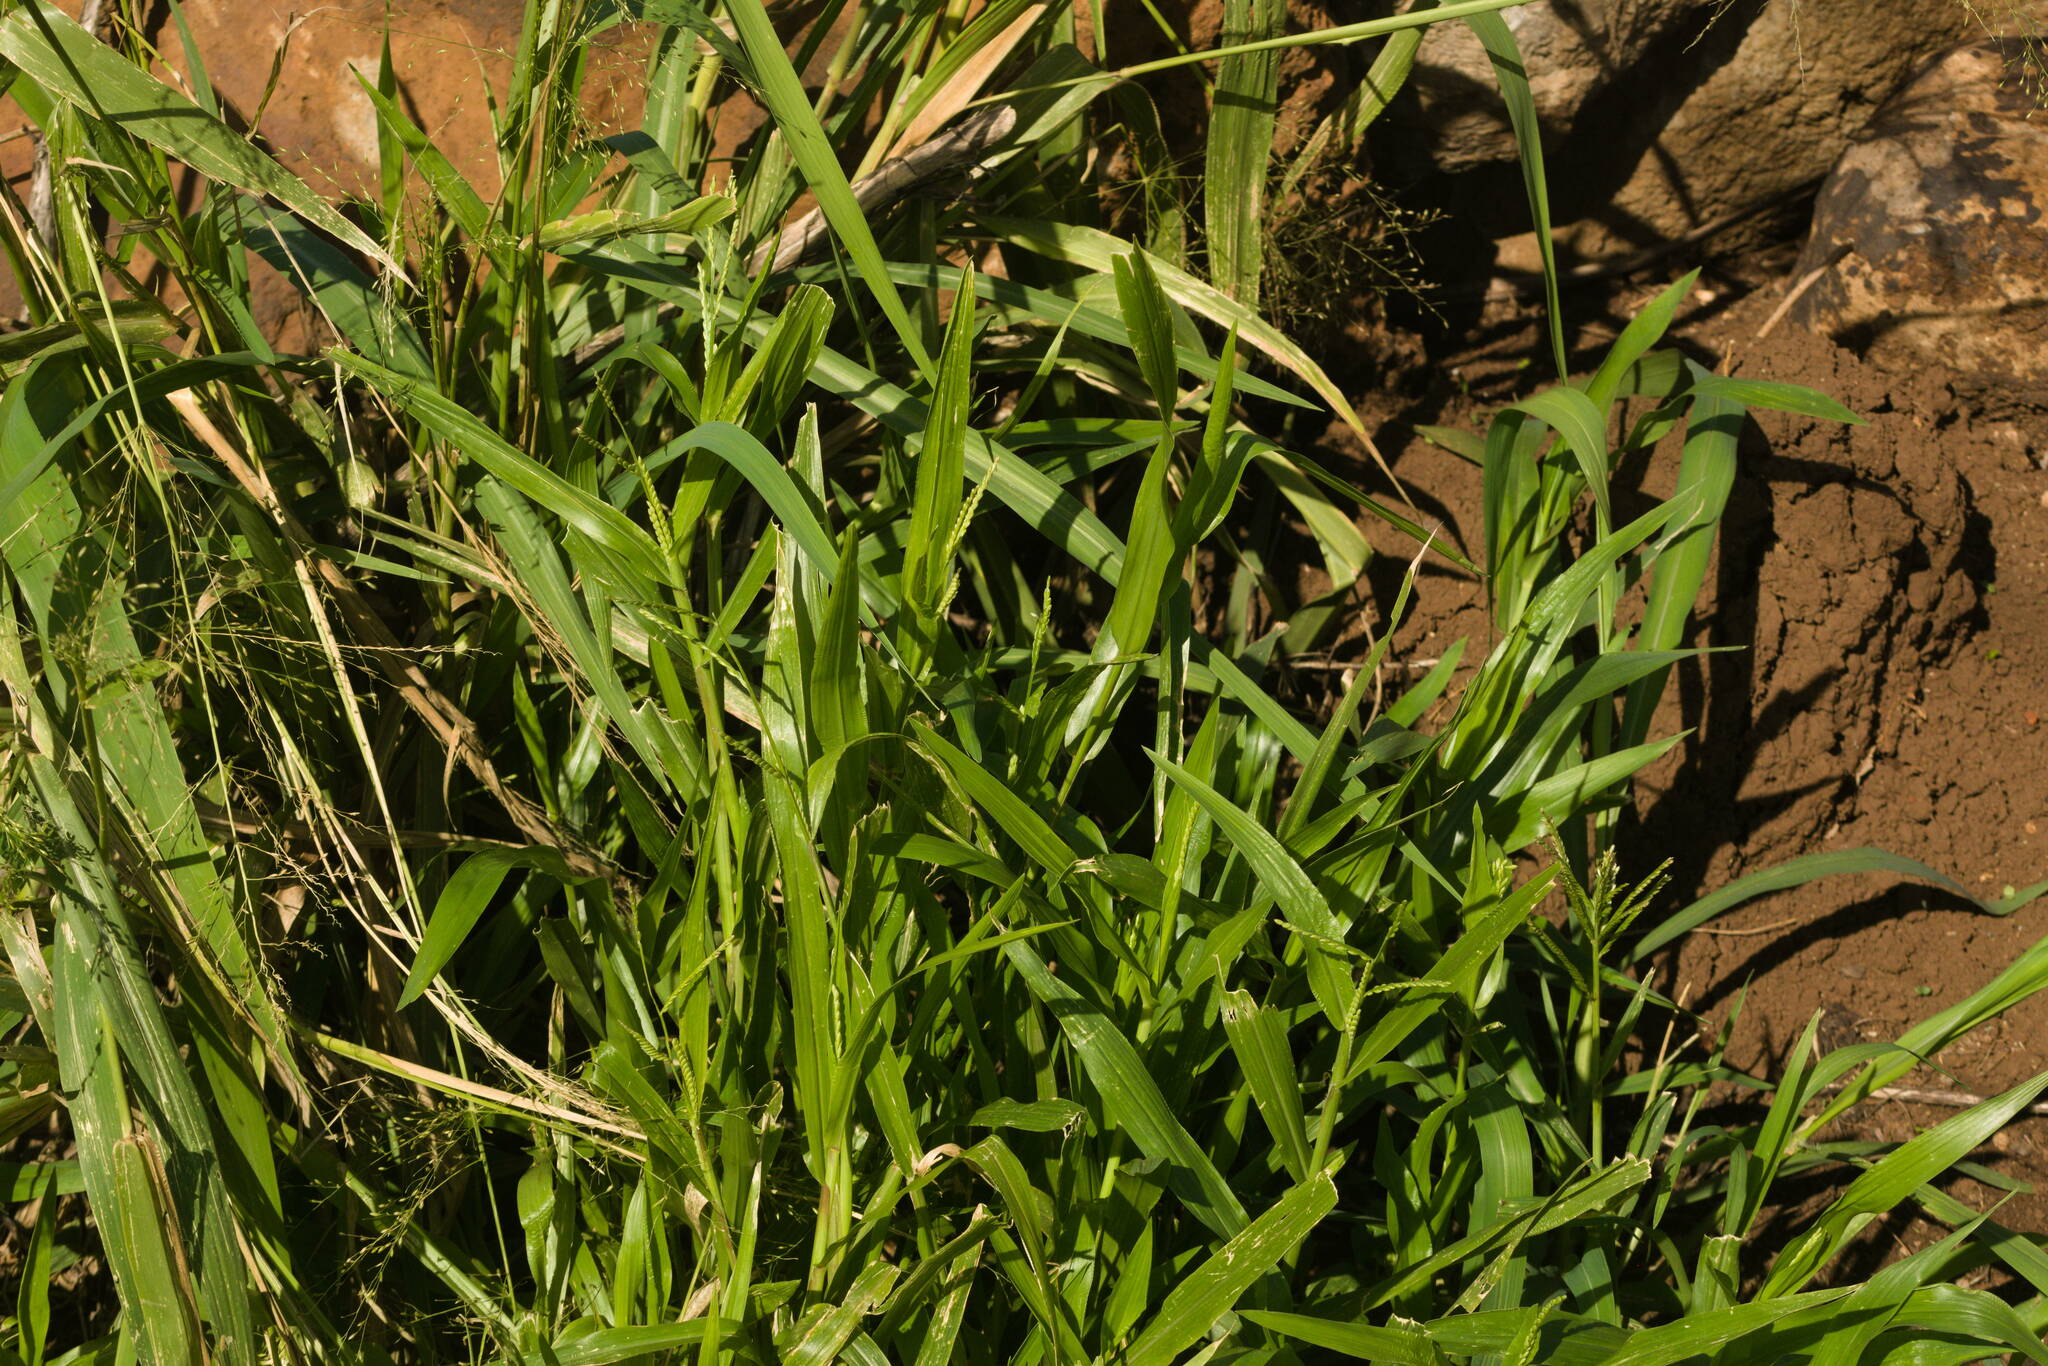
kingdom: Plantae
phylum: Tracheophyta
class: Liliopsida
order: Poales
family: Poaceae
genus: Urochloa
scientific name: Urochloa plantaginea
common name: Plantain signalgrass
